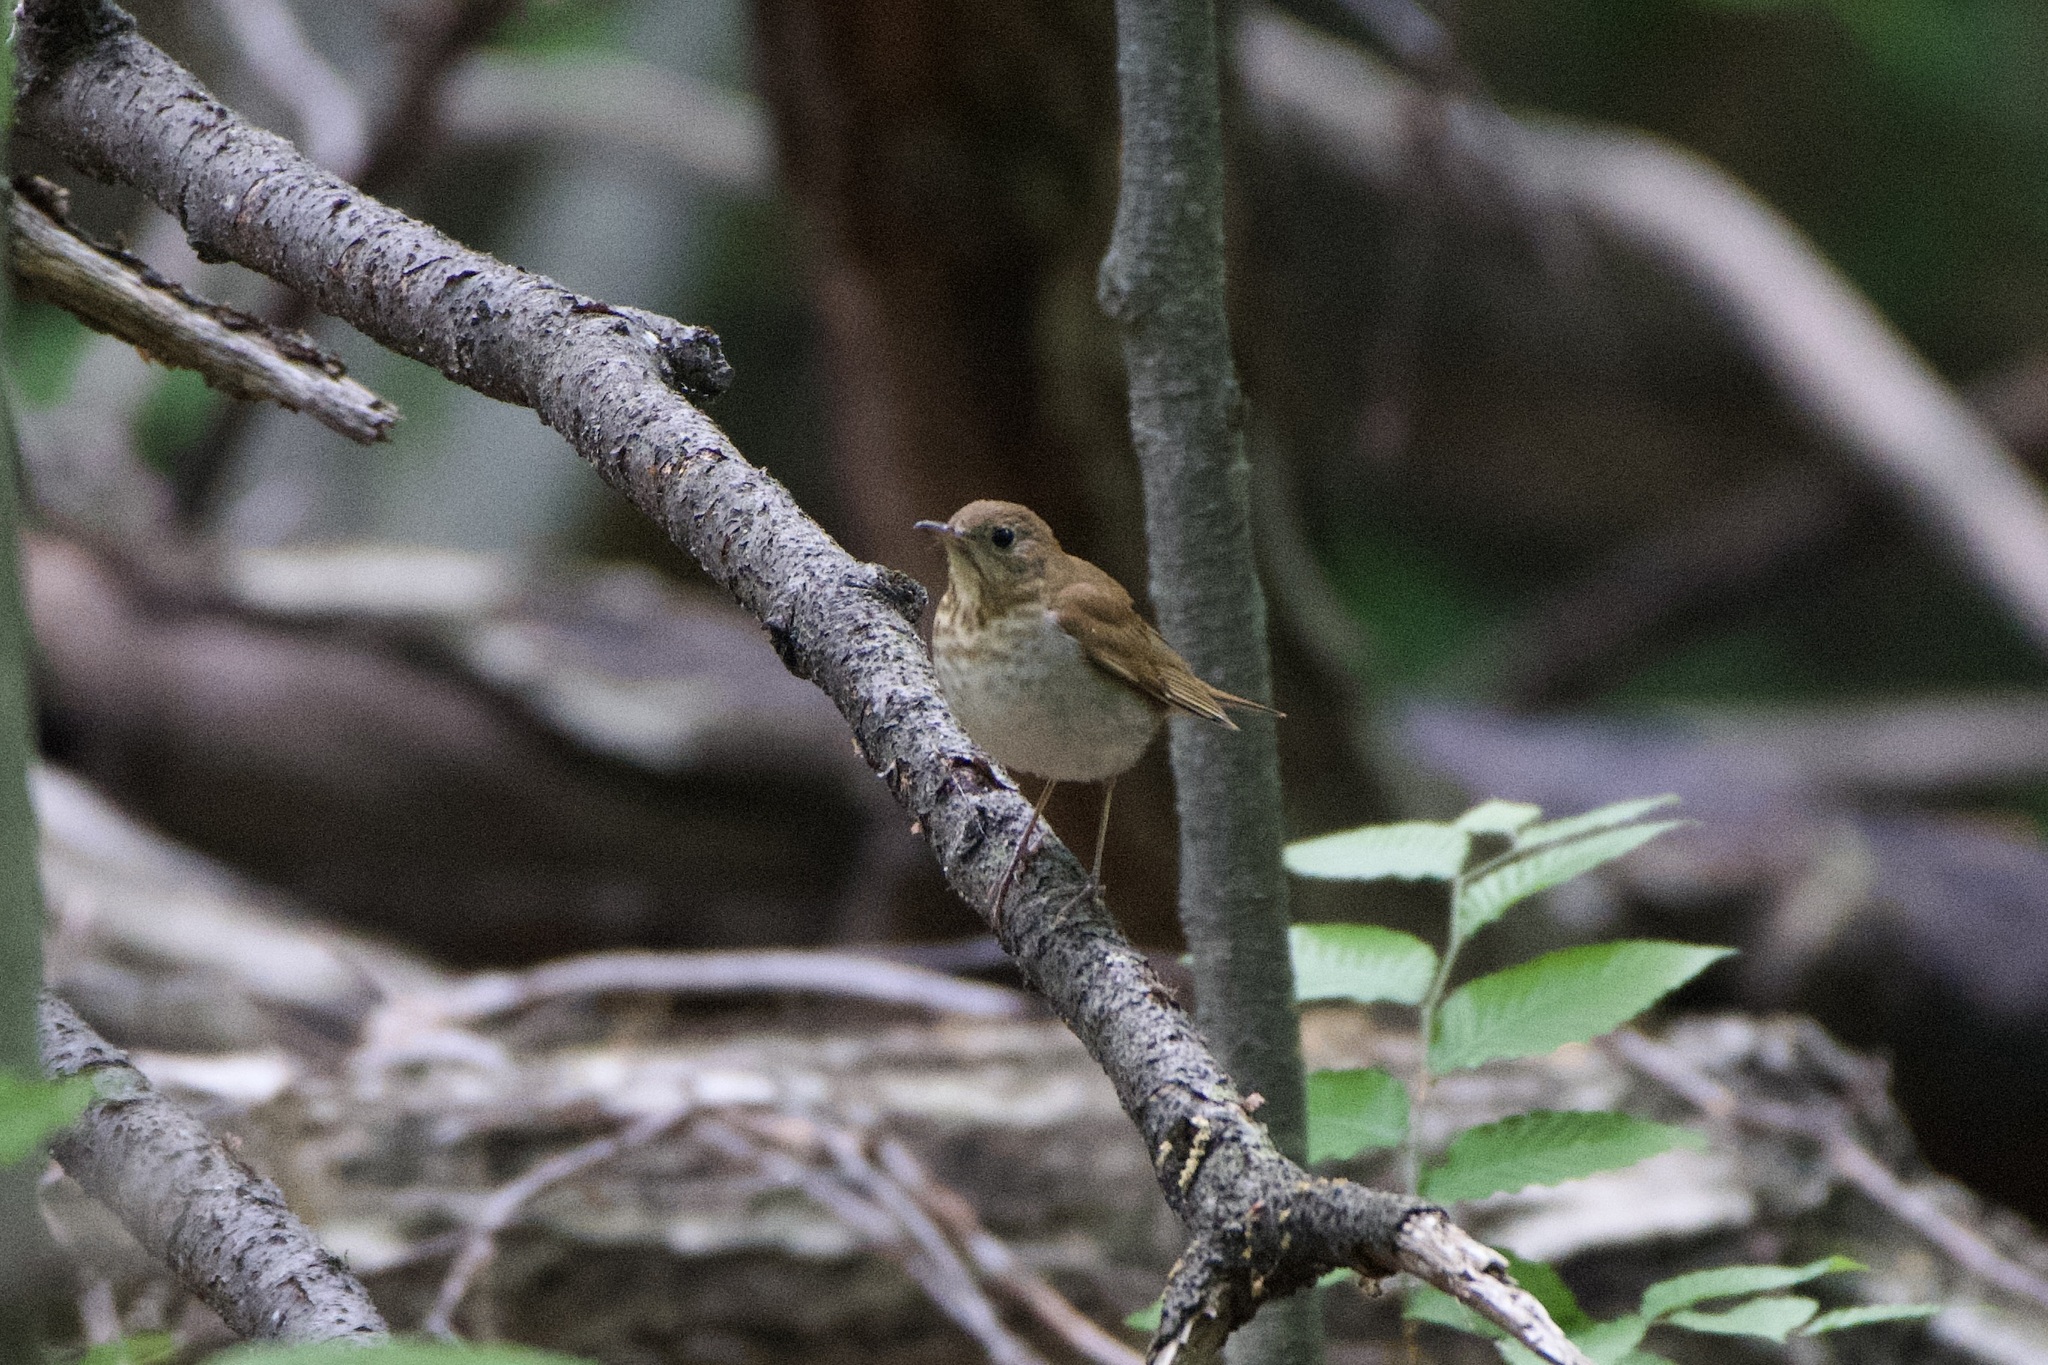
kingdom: Animalia
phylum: Chordata
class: Aves
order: Passeriformes
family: Turdidae
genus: Catharus
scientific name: Catharus fuscescens
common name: Veery
